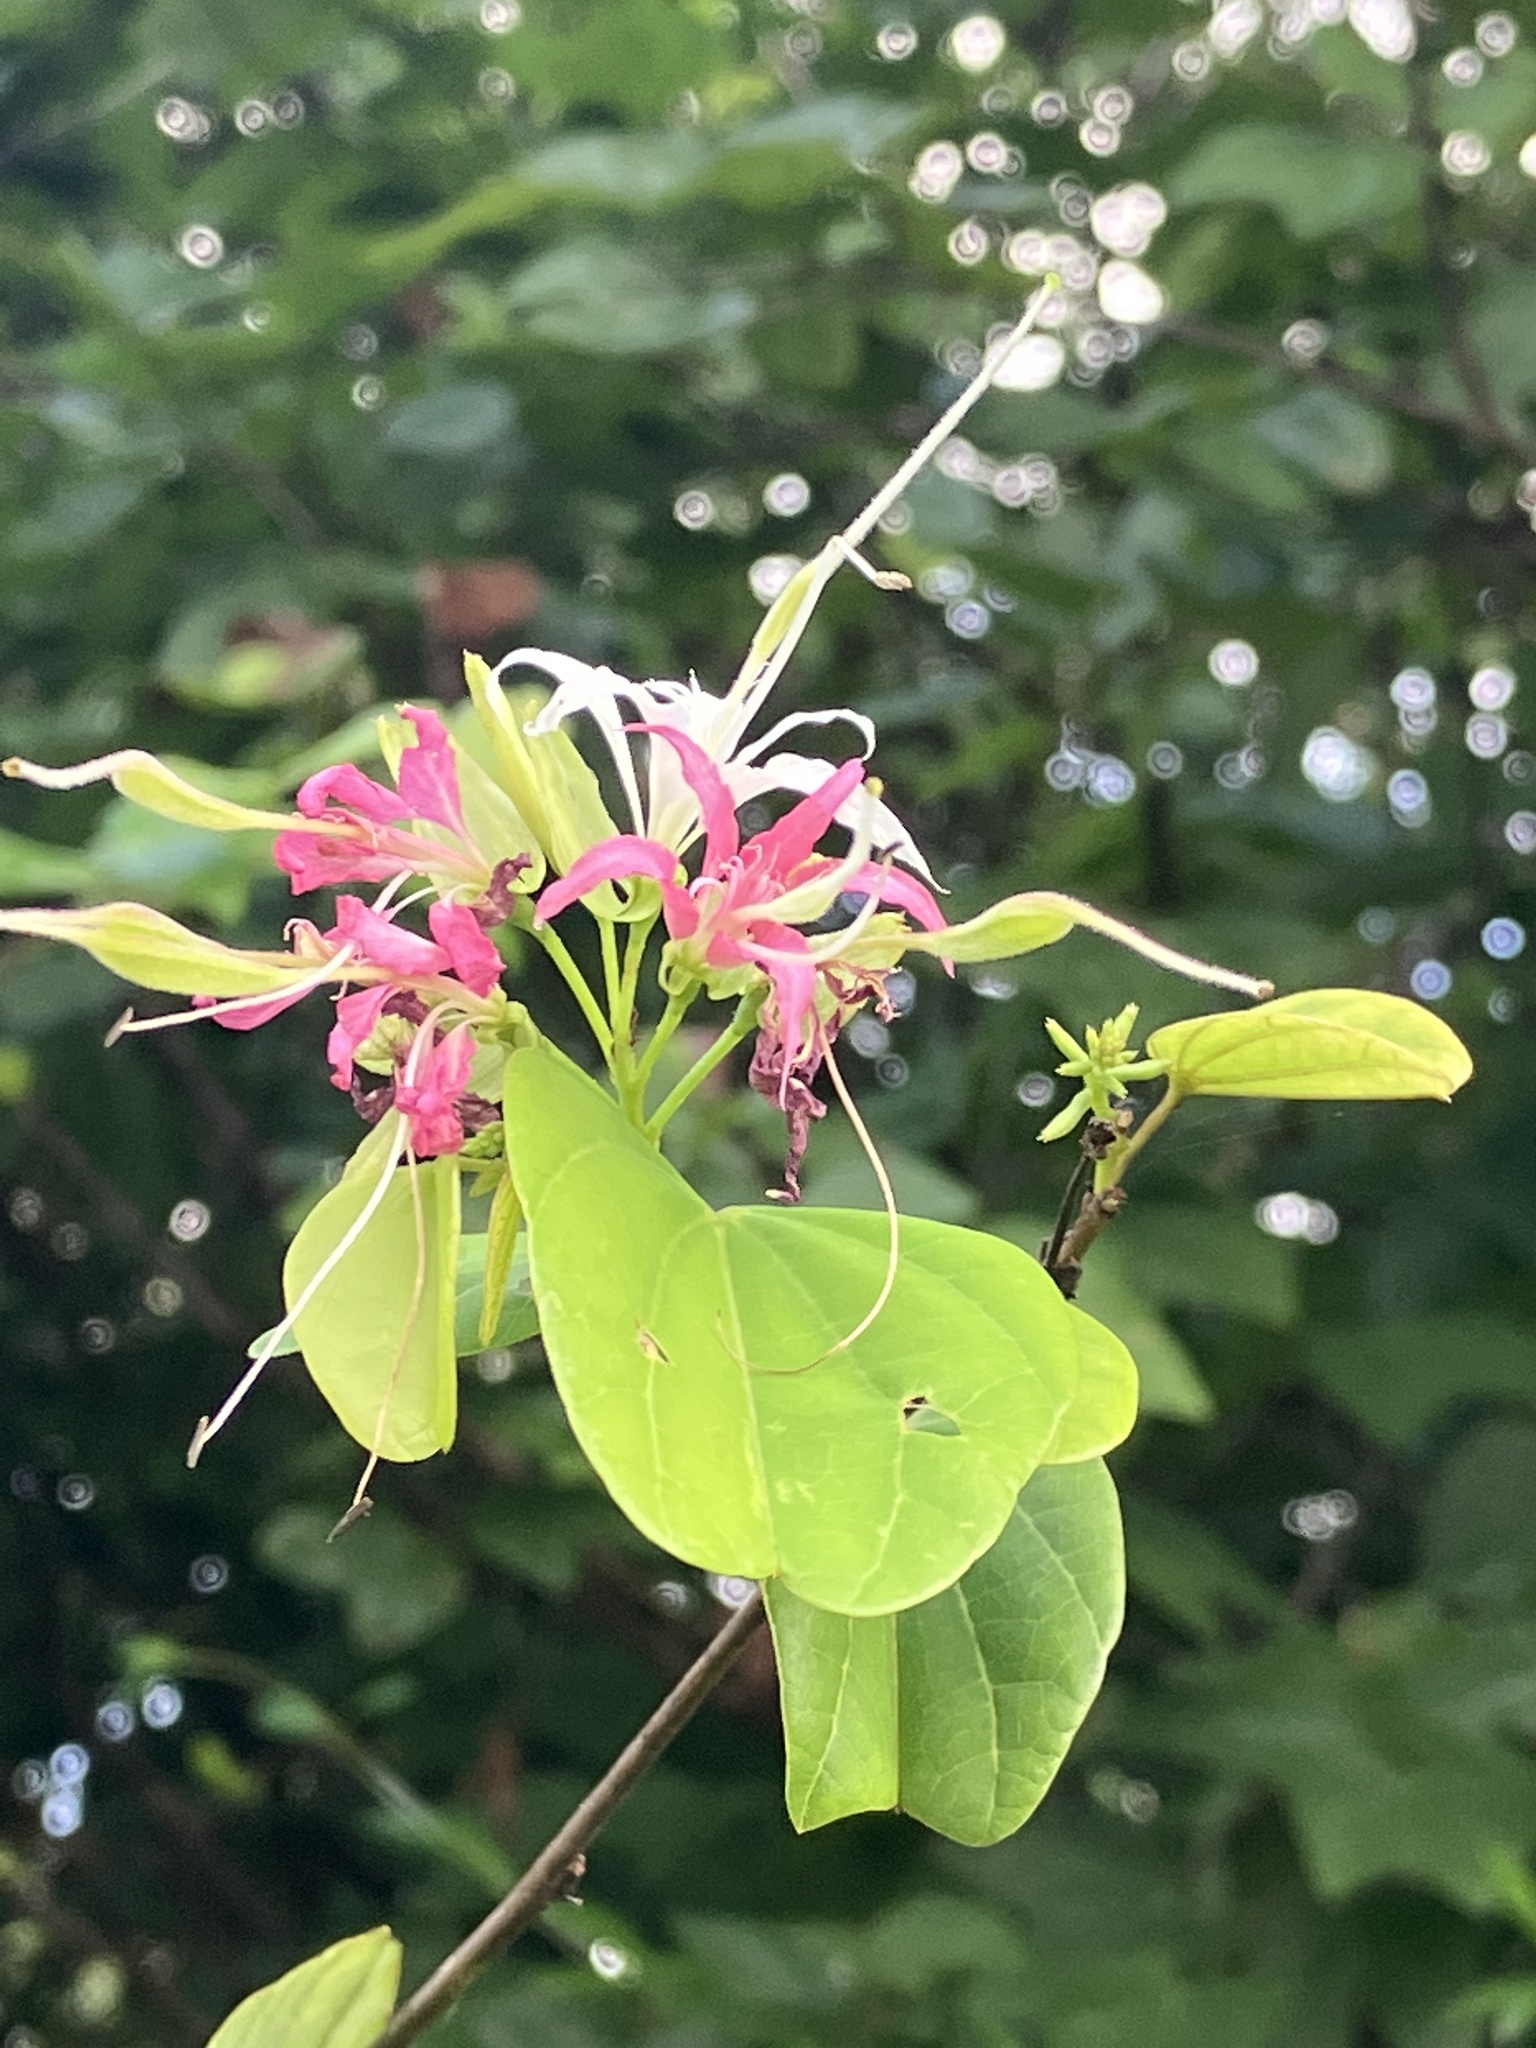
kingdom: Plantae
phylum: Tracheophyta
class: Magnoliopsida
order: Fabales
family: Fabaceae
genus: Bauhinia
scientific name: Bauhinia divaricata
